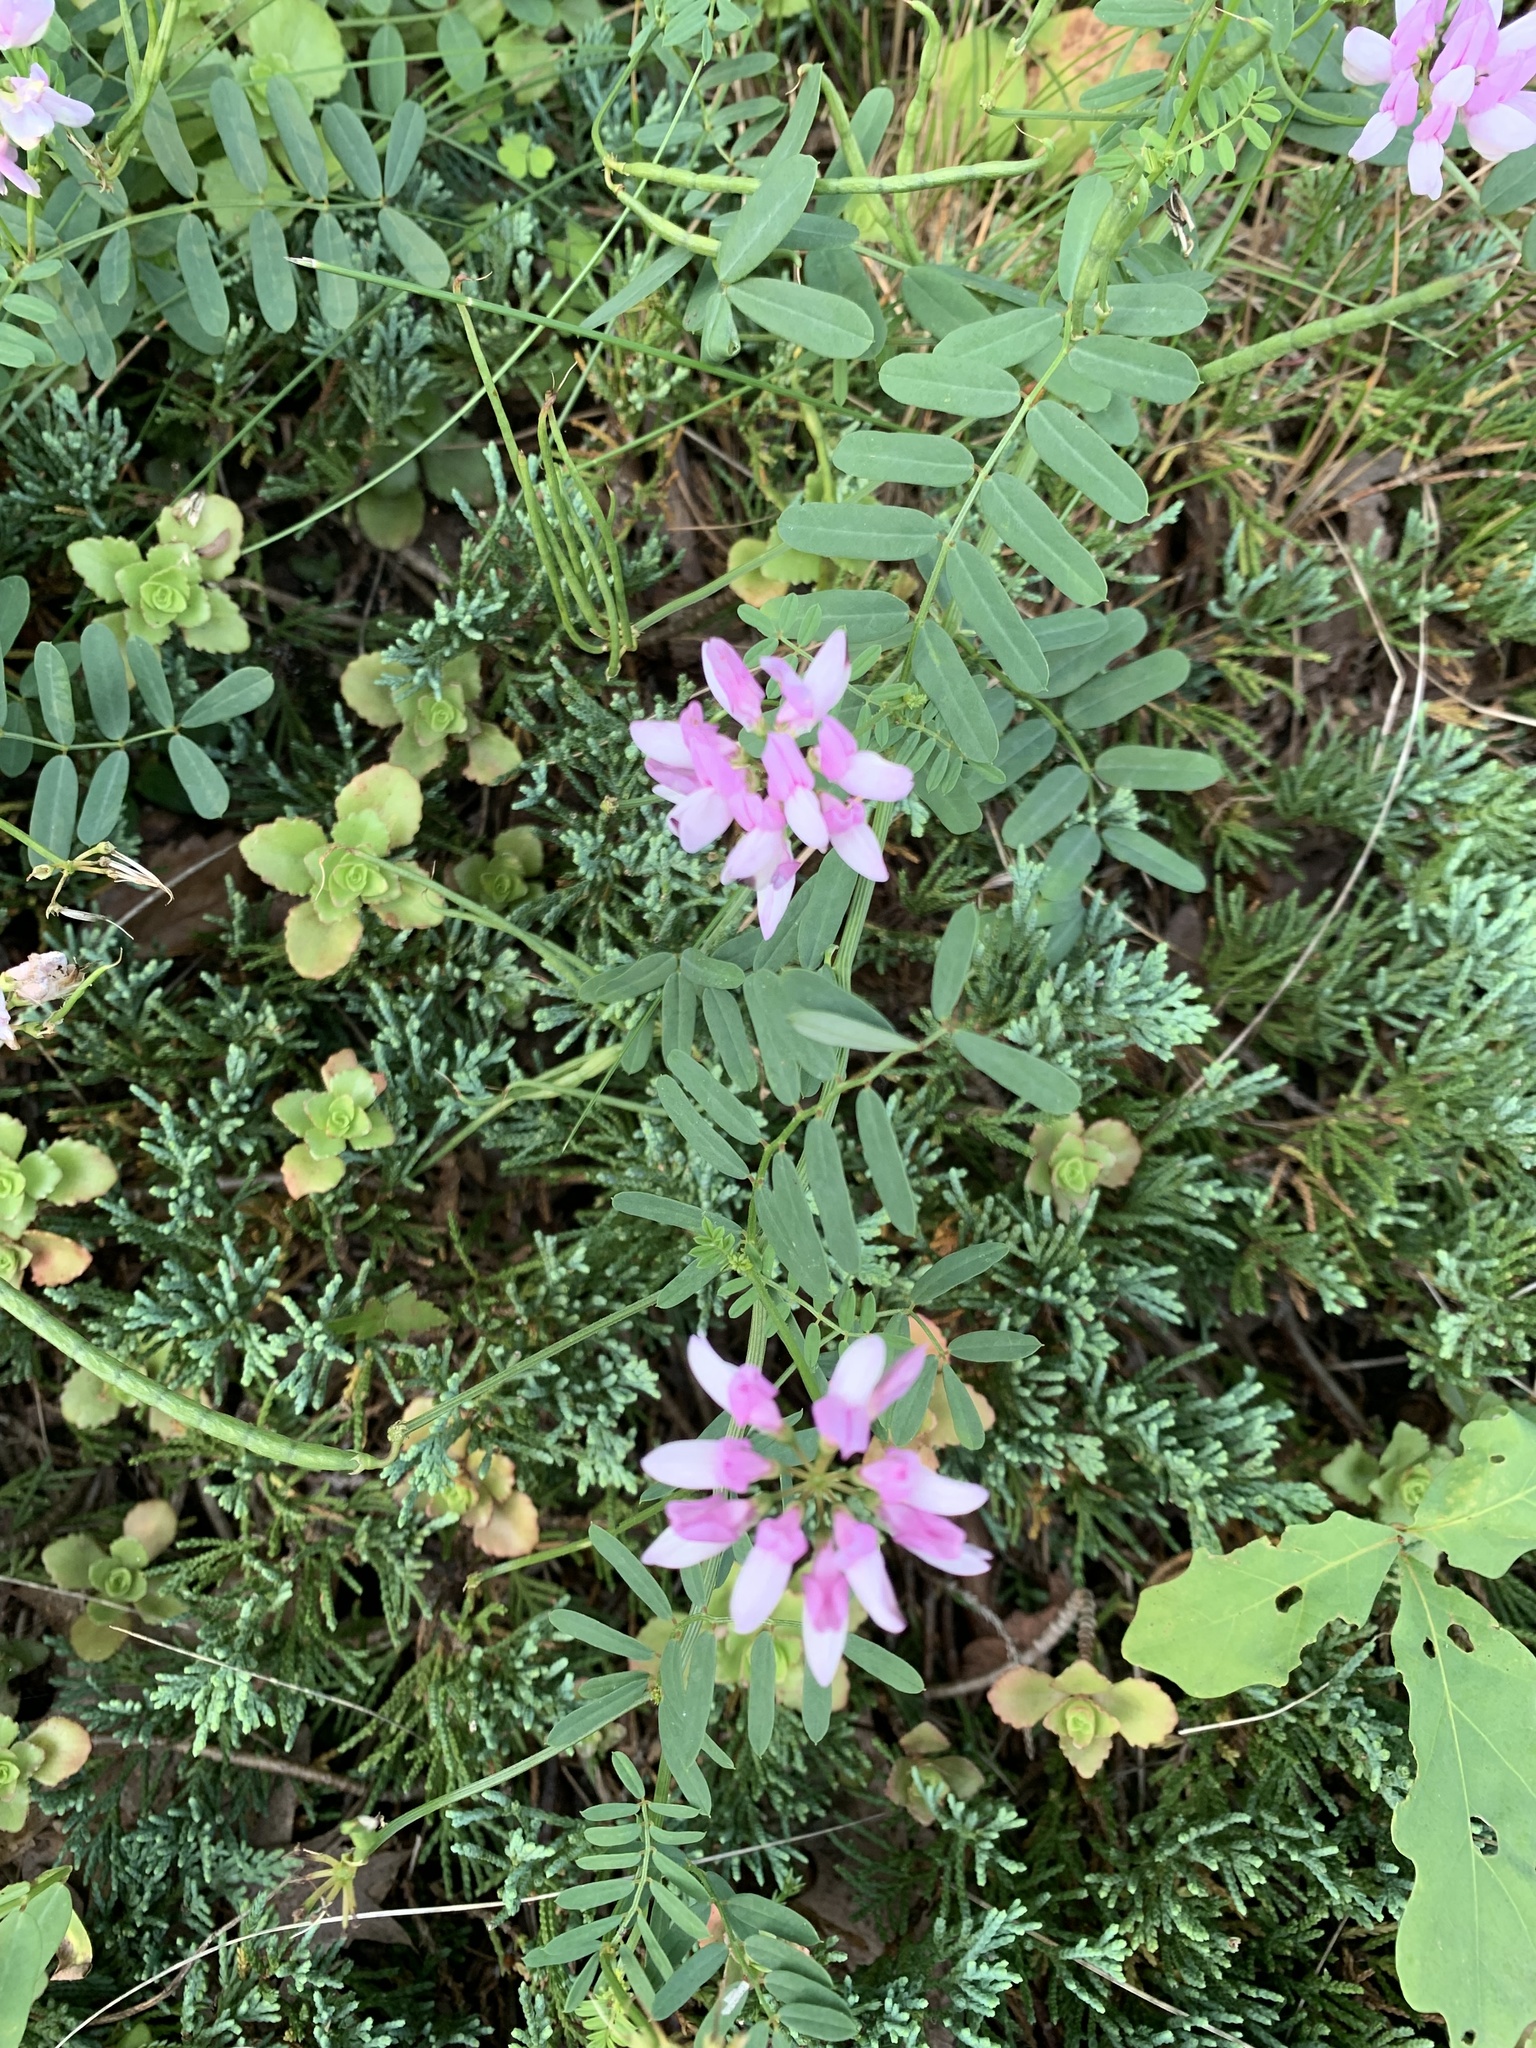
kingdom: Plantae
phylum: Tracheophyta
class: Magnoliopsida
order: Fabales
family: Fabaceae
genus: Coronilla
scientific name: Coronilla varia
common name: Crownvetch
